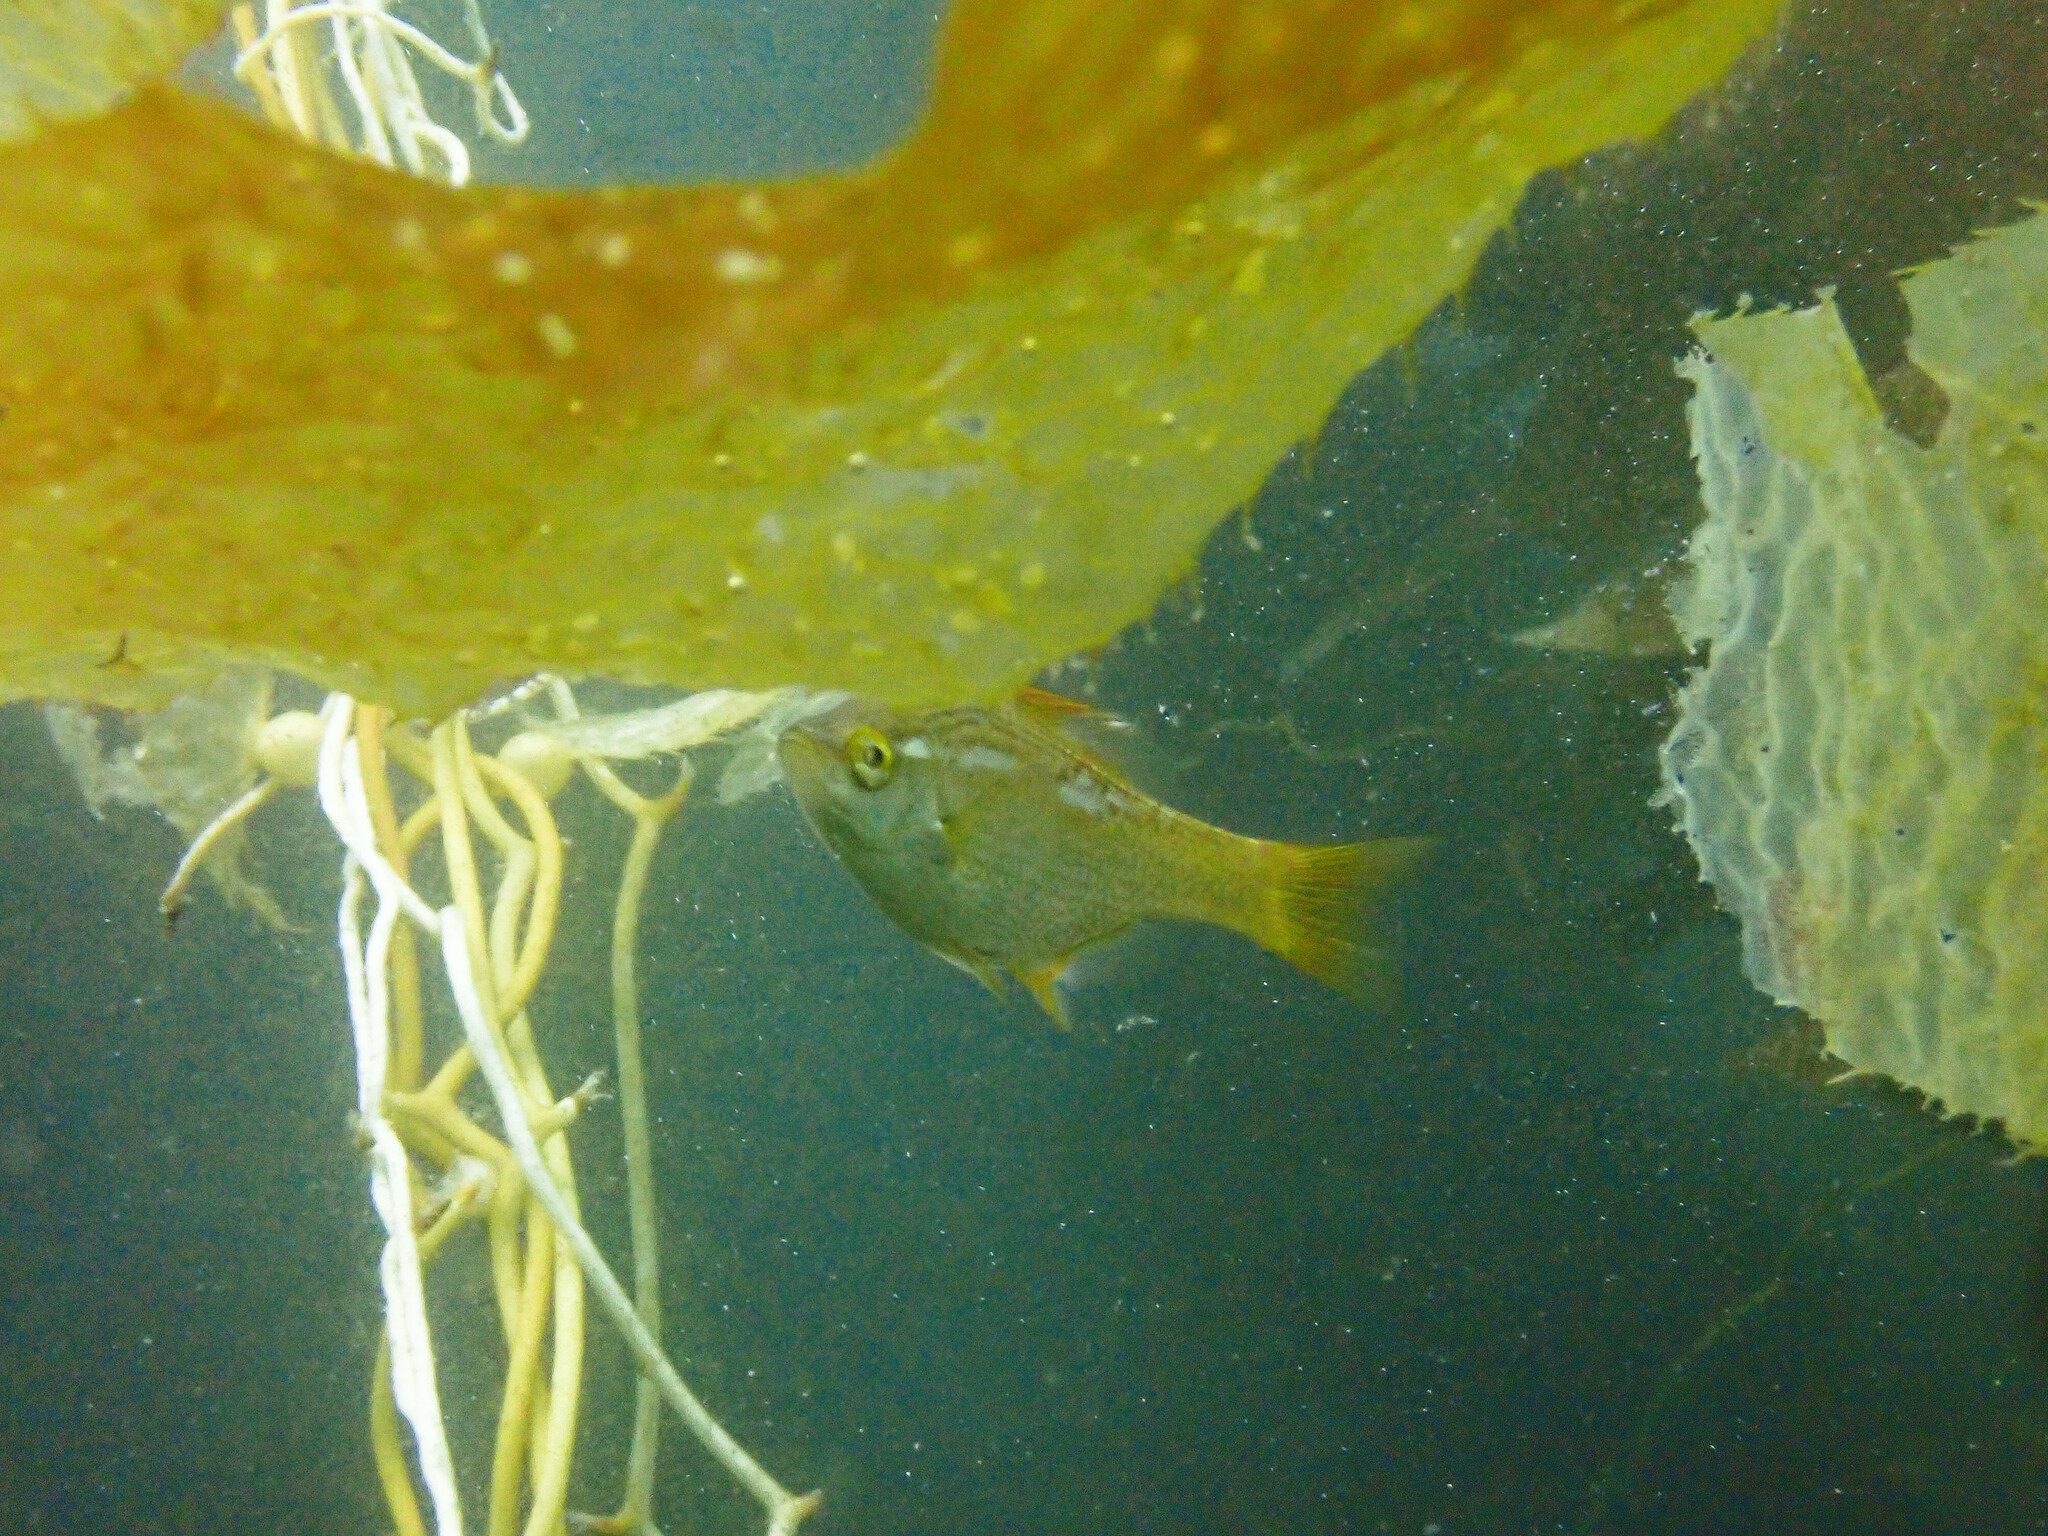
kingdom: Animalia
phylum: Chordata
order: Perciformes
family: Embiotocidae
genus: Brachyistius
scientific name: Brachyistius frenatus
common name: Kelp perch
